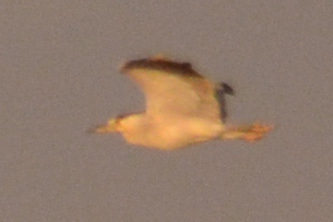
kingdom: Animalia
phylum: Chordata
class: Aves
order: Pelecaniformes
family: Ardeidae
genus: Nycticorax
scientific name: Nycticorax nycticorax
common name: Black-crowned night heron
